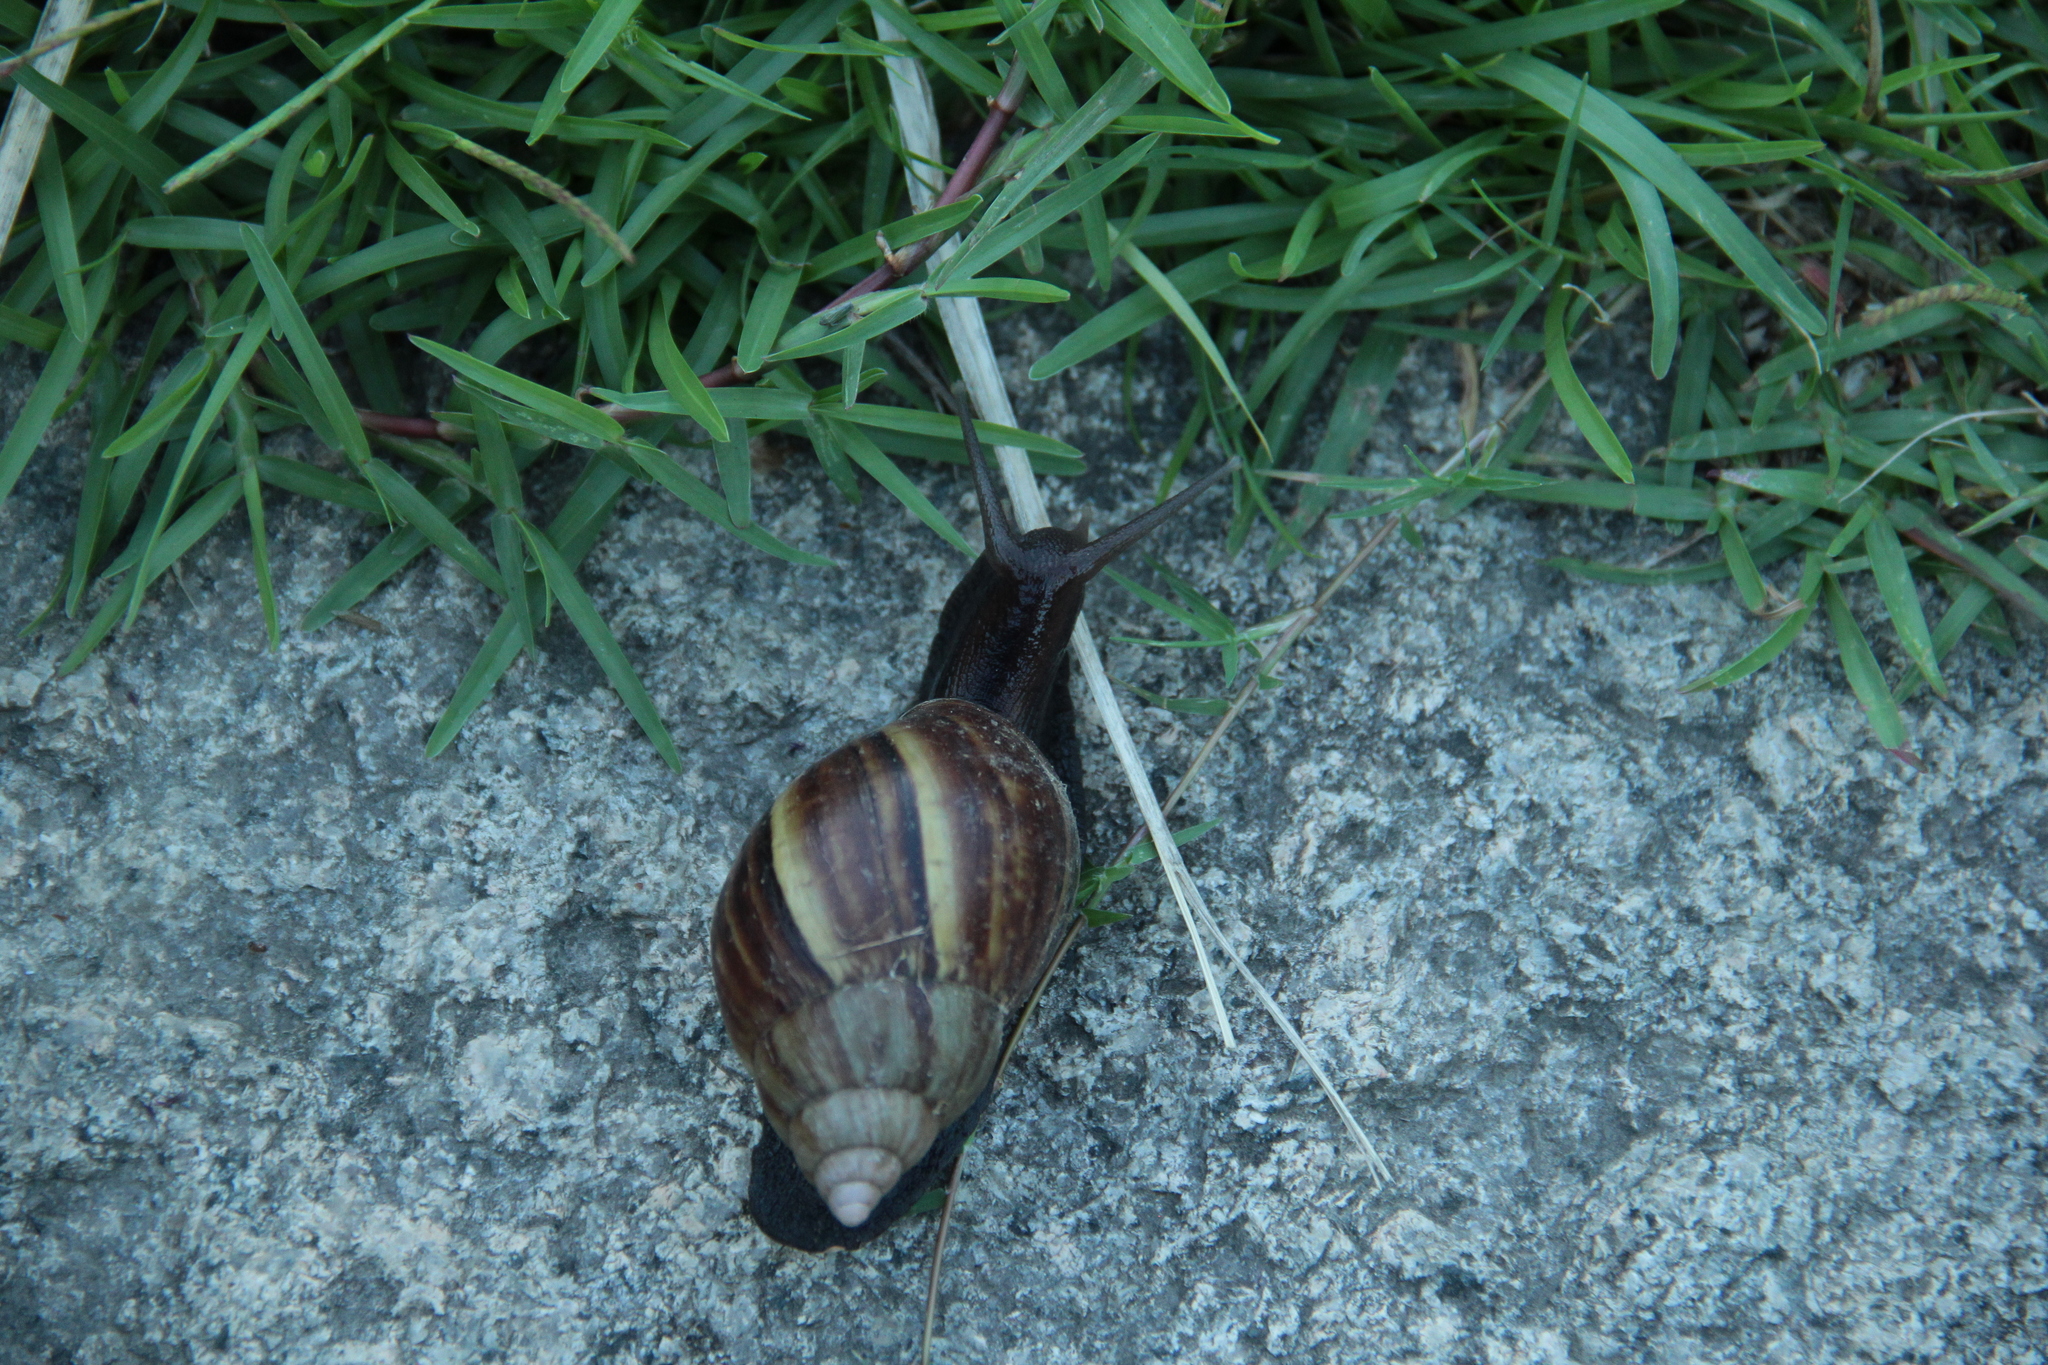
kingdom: Animalia
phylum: Mollusca
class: Gastropoda
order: Stylommatophora
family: Achatinidae
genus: Lissachatina
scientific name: Lissachatina fulica
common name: Giant african snail
